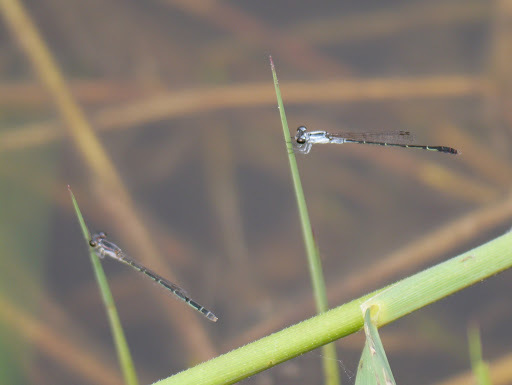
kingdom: Animalia
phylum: Arthropoda
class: Insecta
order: Odonata
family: Coenagrionidae
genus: Agriocnemis
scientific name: Agriocnemis victoria
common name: Lesser pincer-tailed wisp
